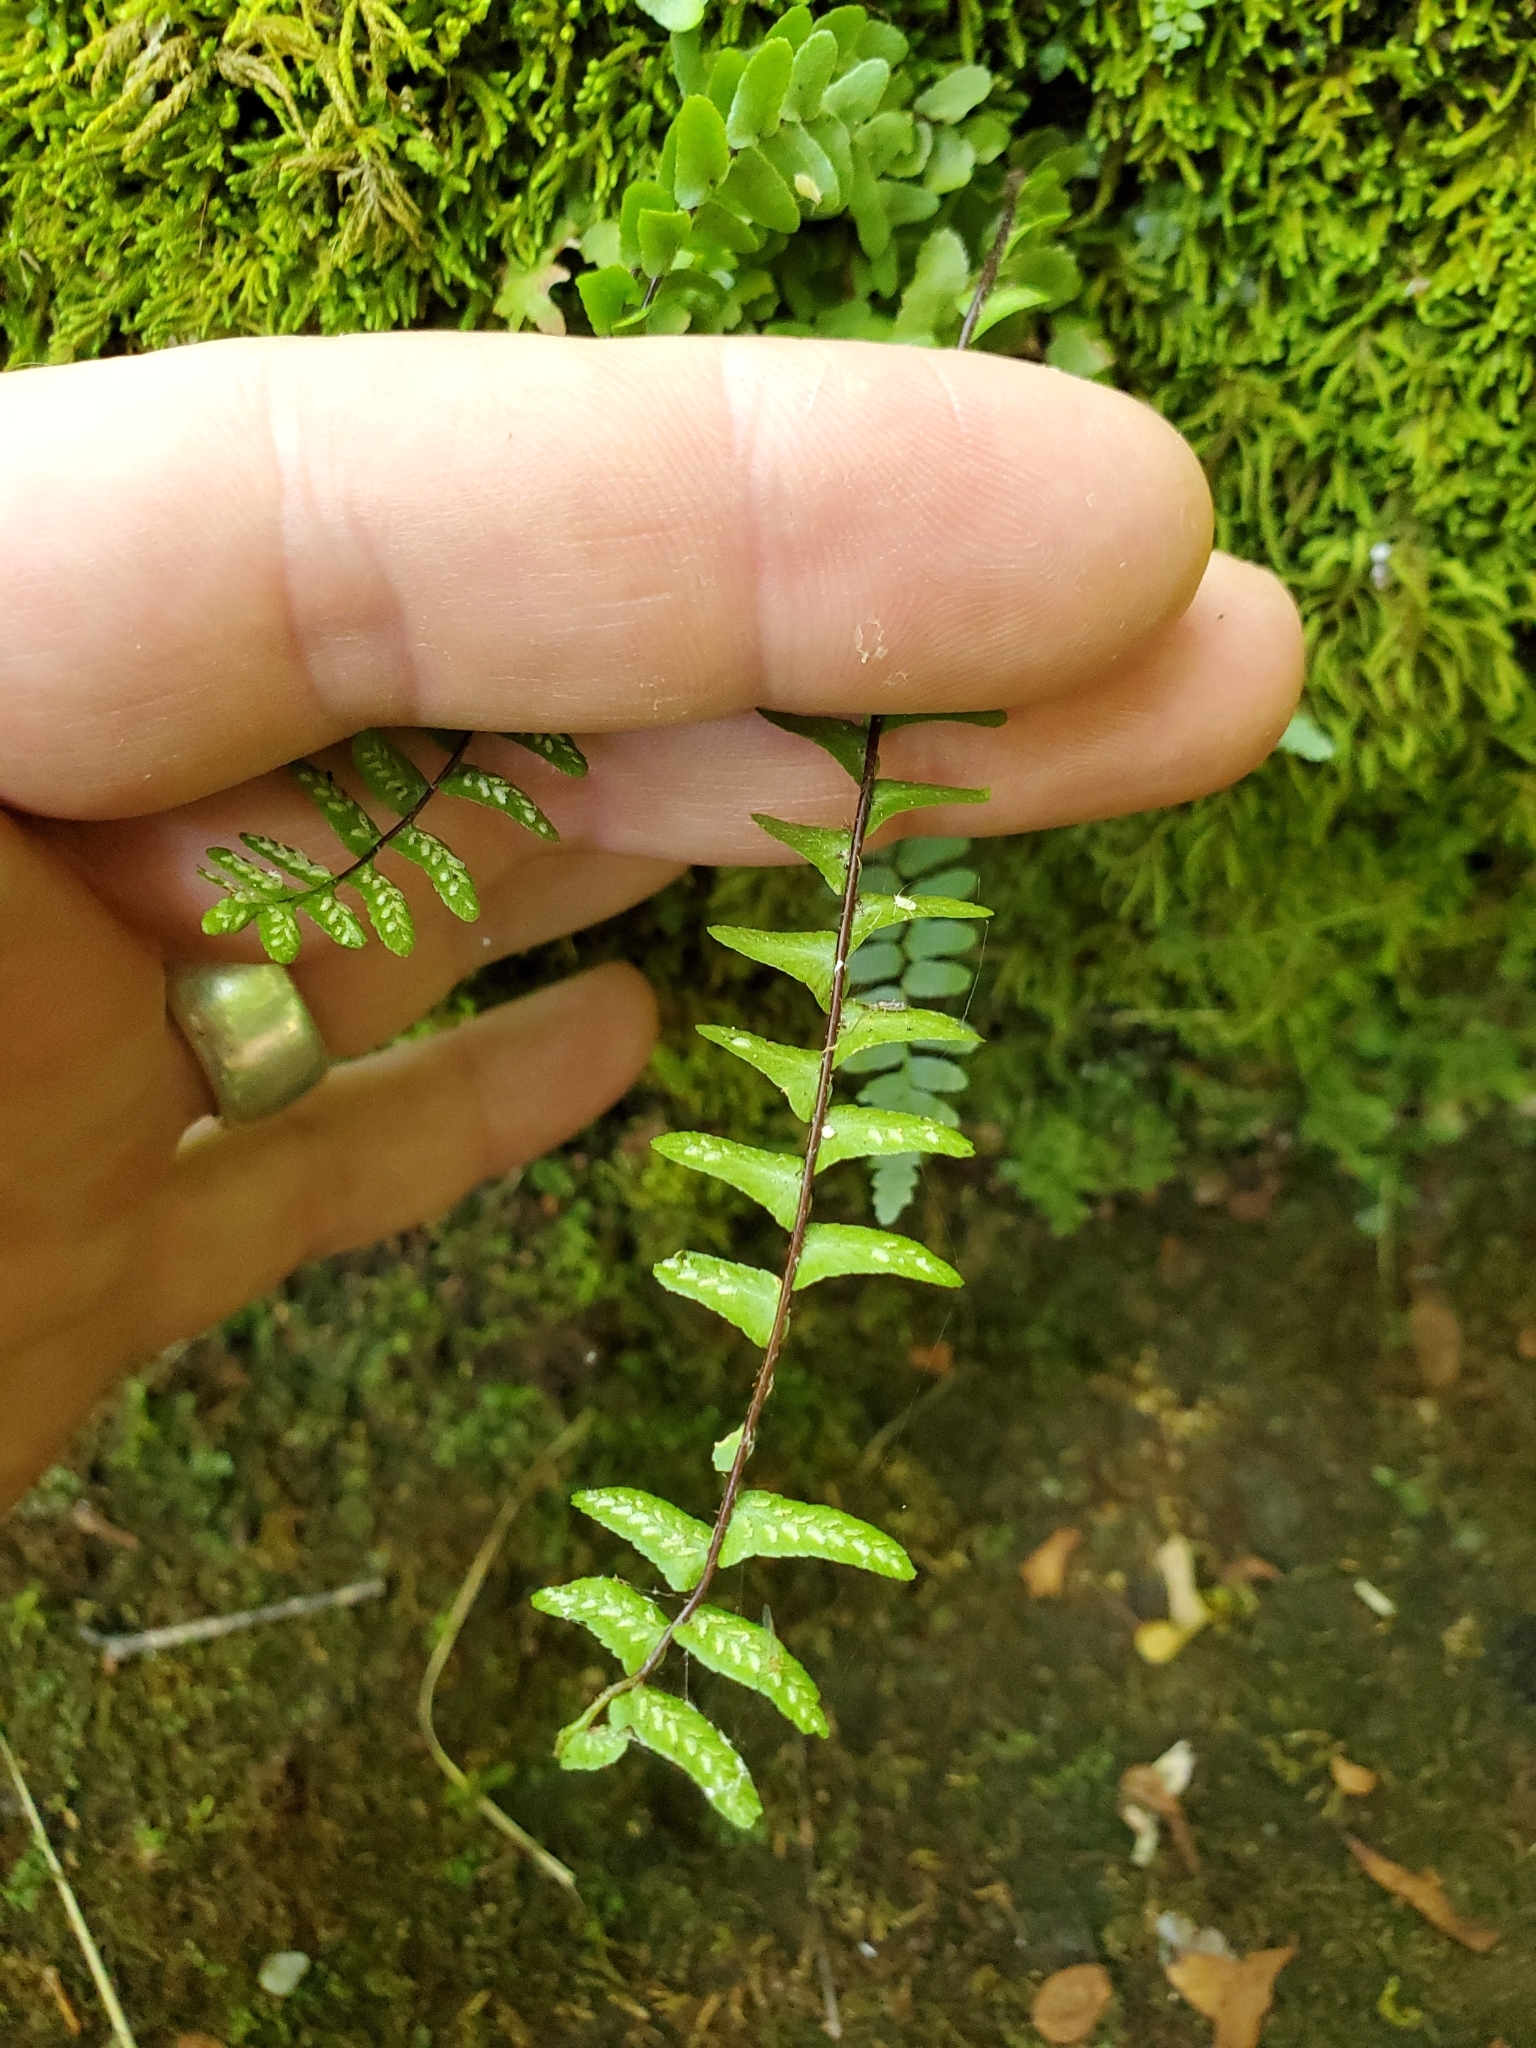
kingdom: Plantae
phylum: Tracheophyta
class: Polypodiopsida
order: Polypodiales
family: Aspleniaceae
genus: Asplenium
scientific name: Asplenium platyneuron
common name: Ebony spleenwort
